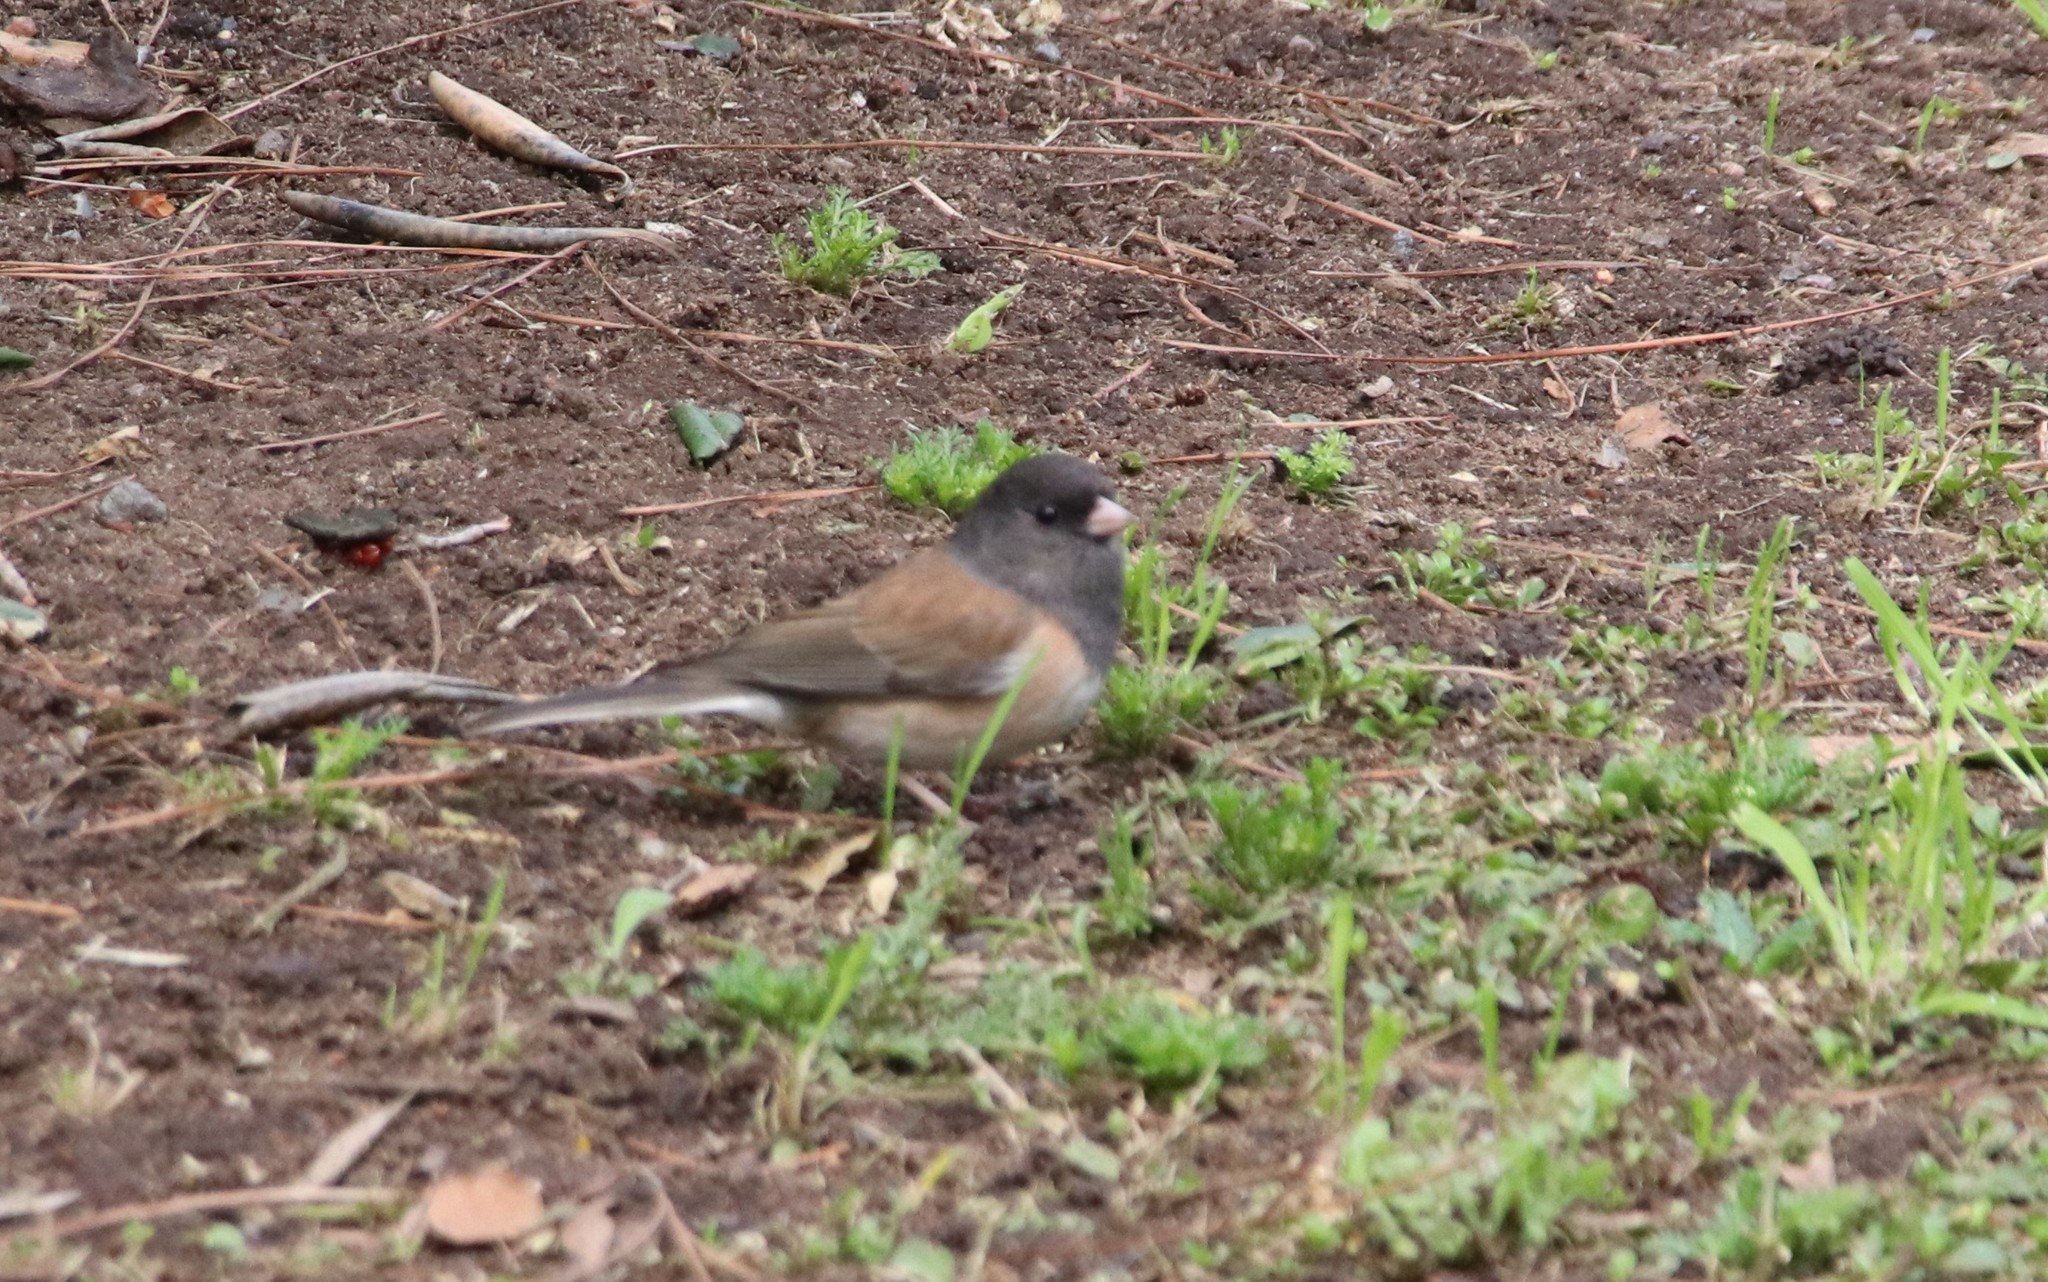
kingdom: Animalia
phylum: Chordata
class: Aves
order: Passeriformes
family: Passerellidae
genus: Junco
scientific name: Junco hyemalis
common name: Dark-eyed junco
